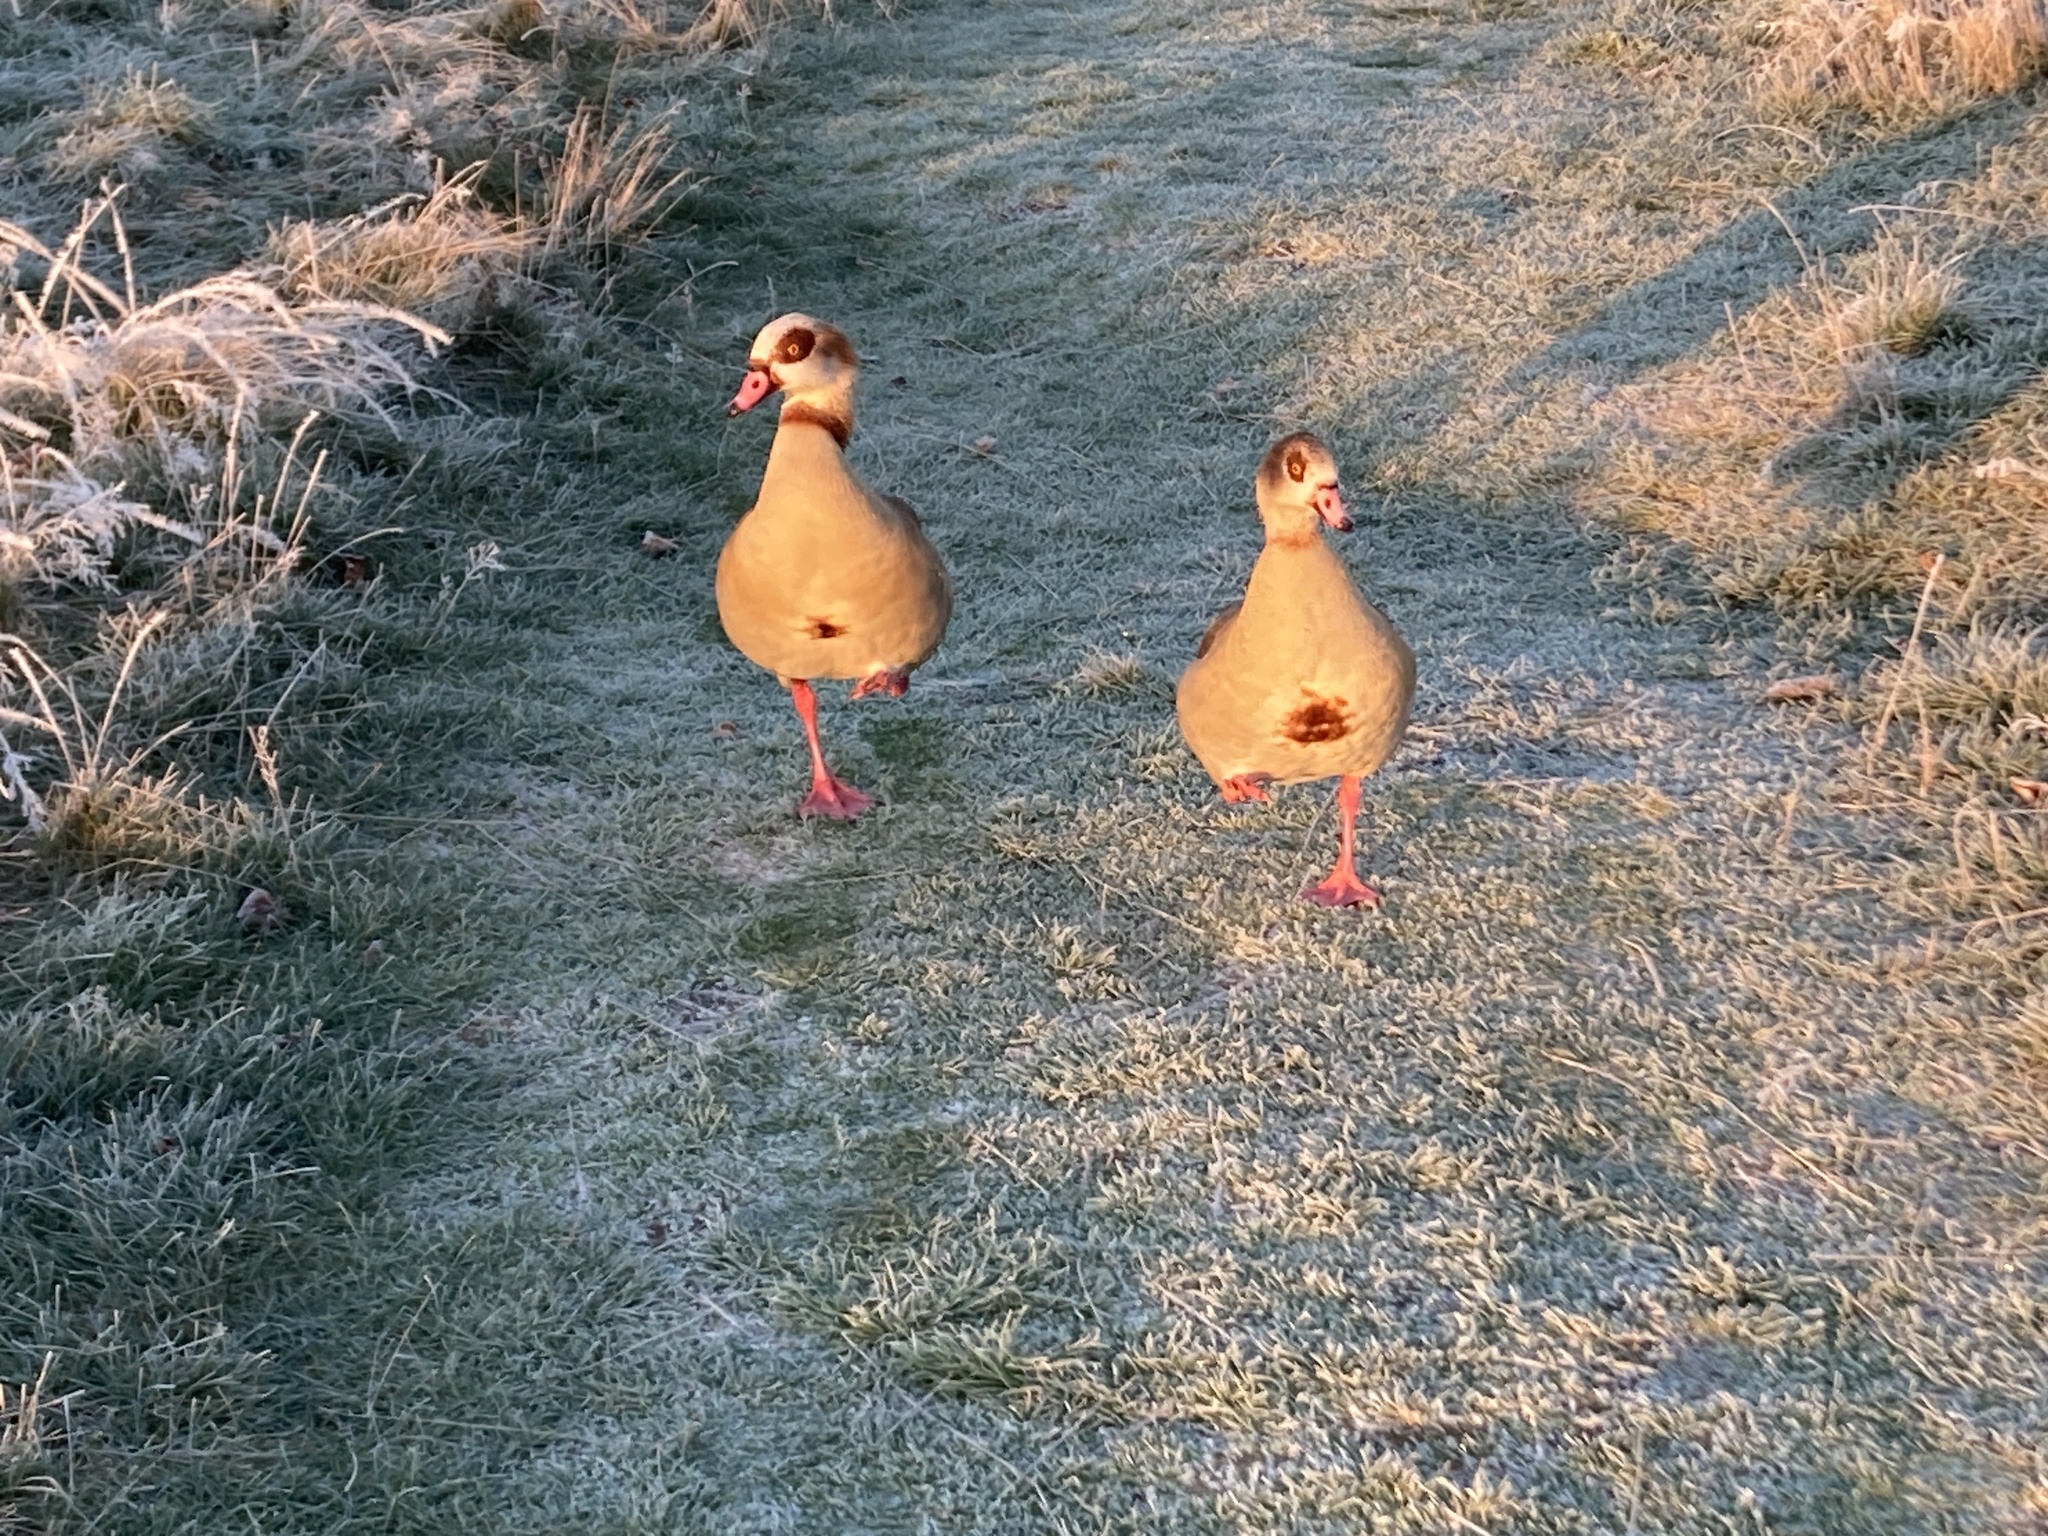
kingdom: Animalia
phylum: Chordata
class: Aves
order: Anseriformes
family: Anatidae
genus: Alopochen
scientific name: Alopochen aegyptiaca
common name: Egyptian goose
